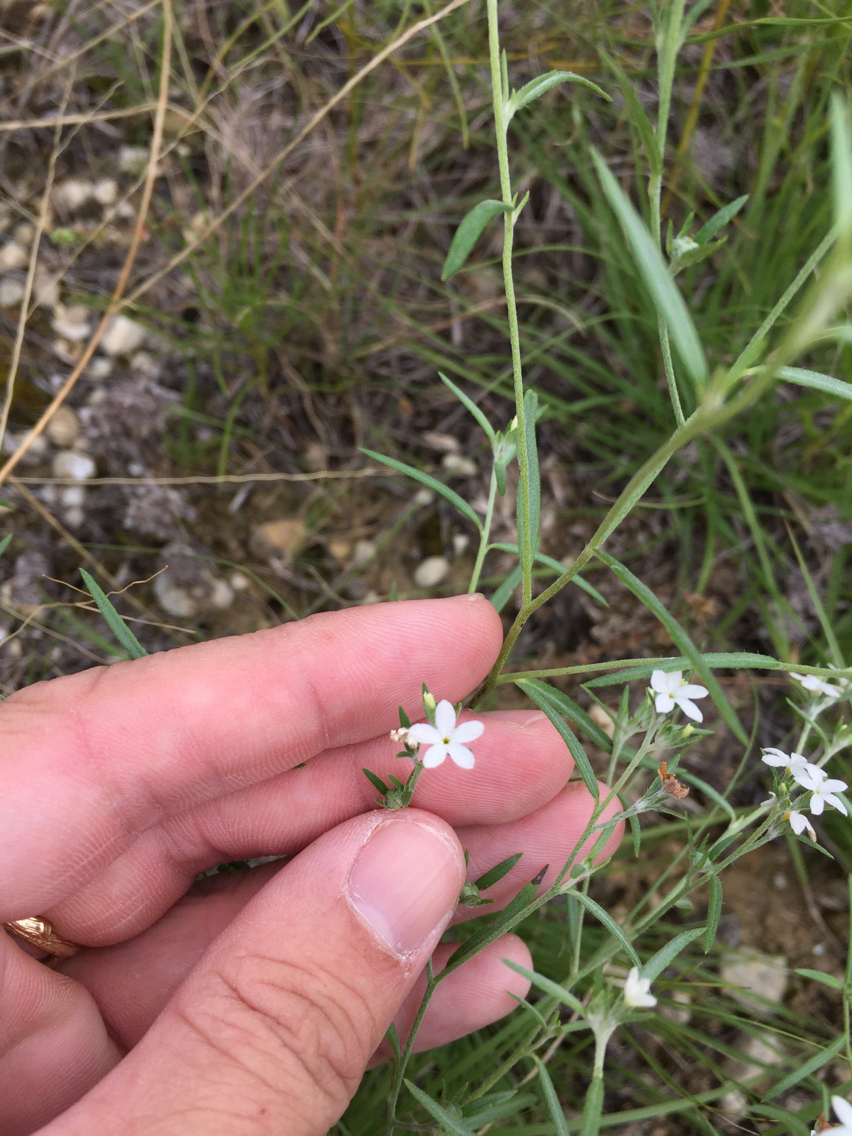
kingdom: Plantae
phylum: Tracheophyta
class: Magnoliopsida
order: Boraginales
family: Heliotropiaceae
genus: Euploca
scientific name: Euploca tenella
